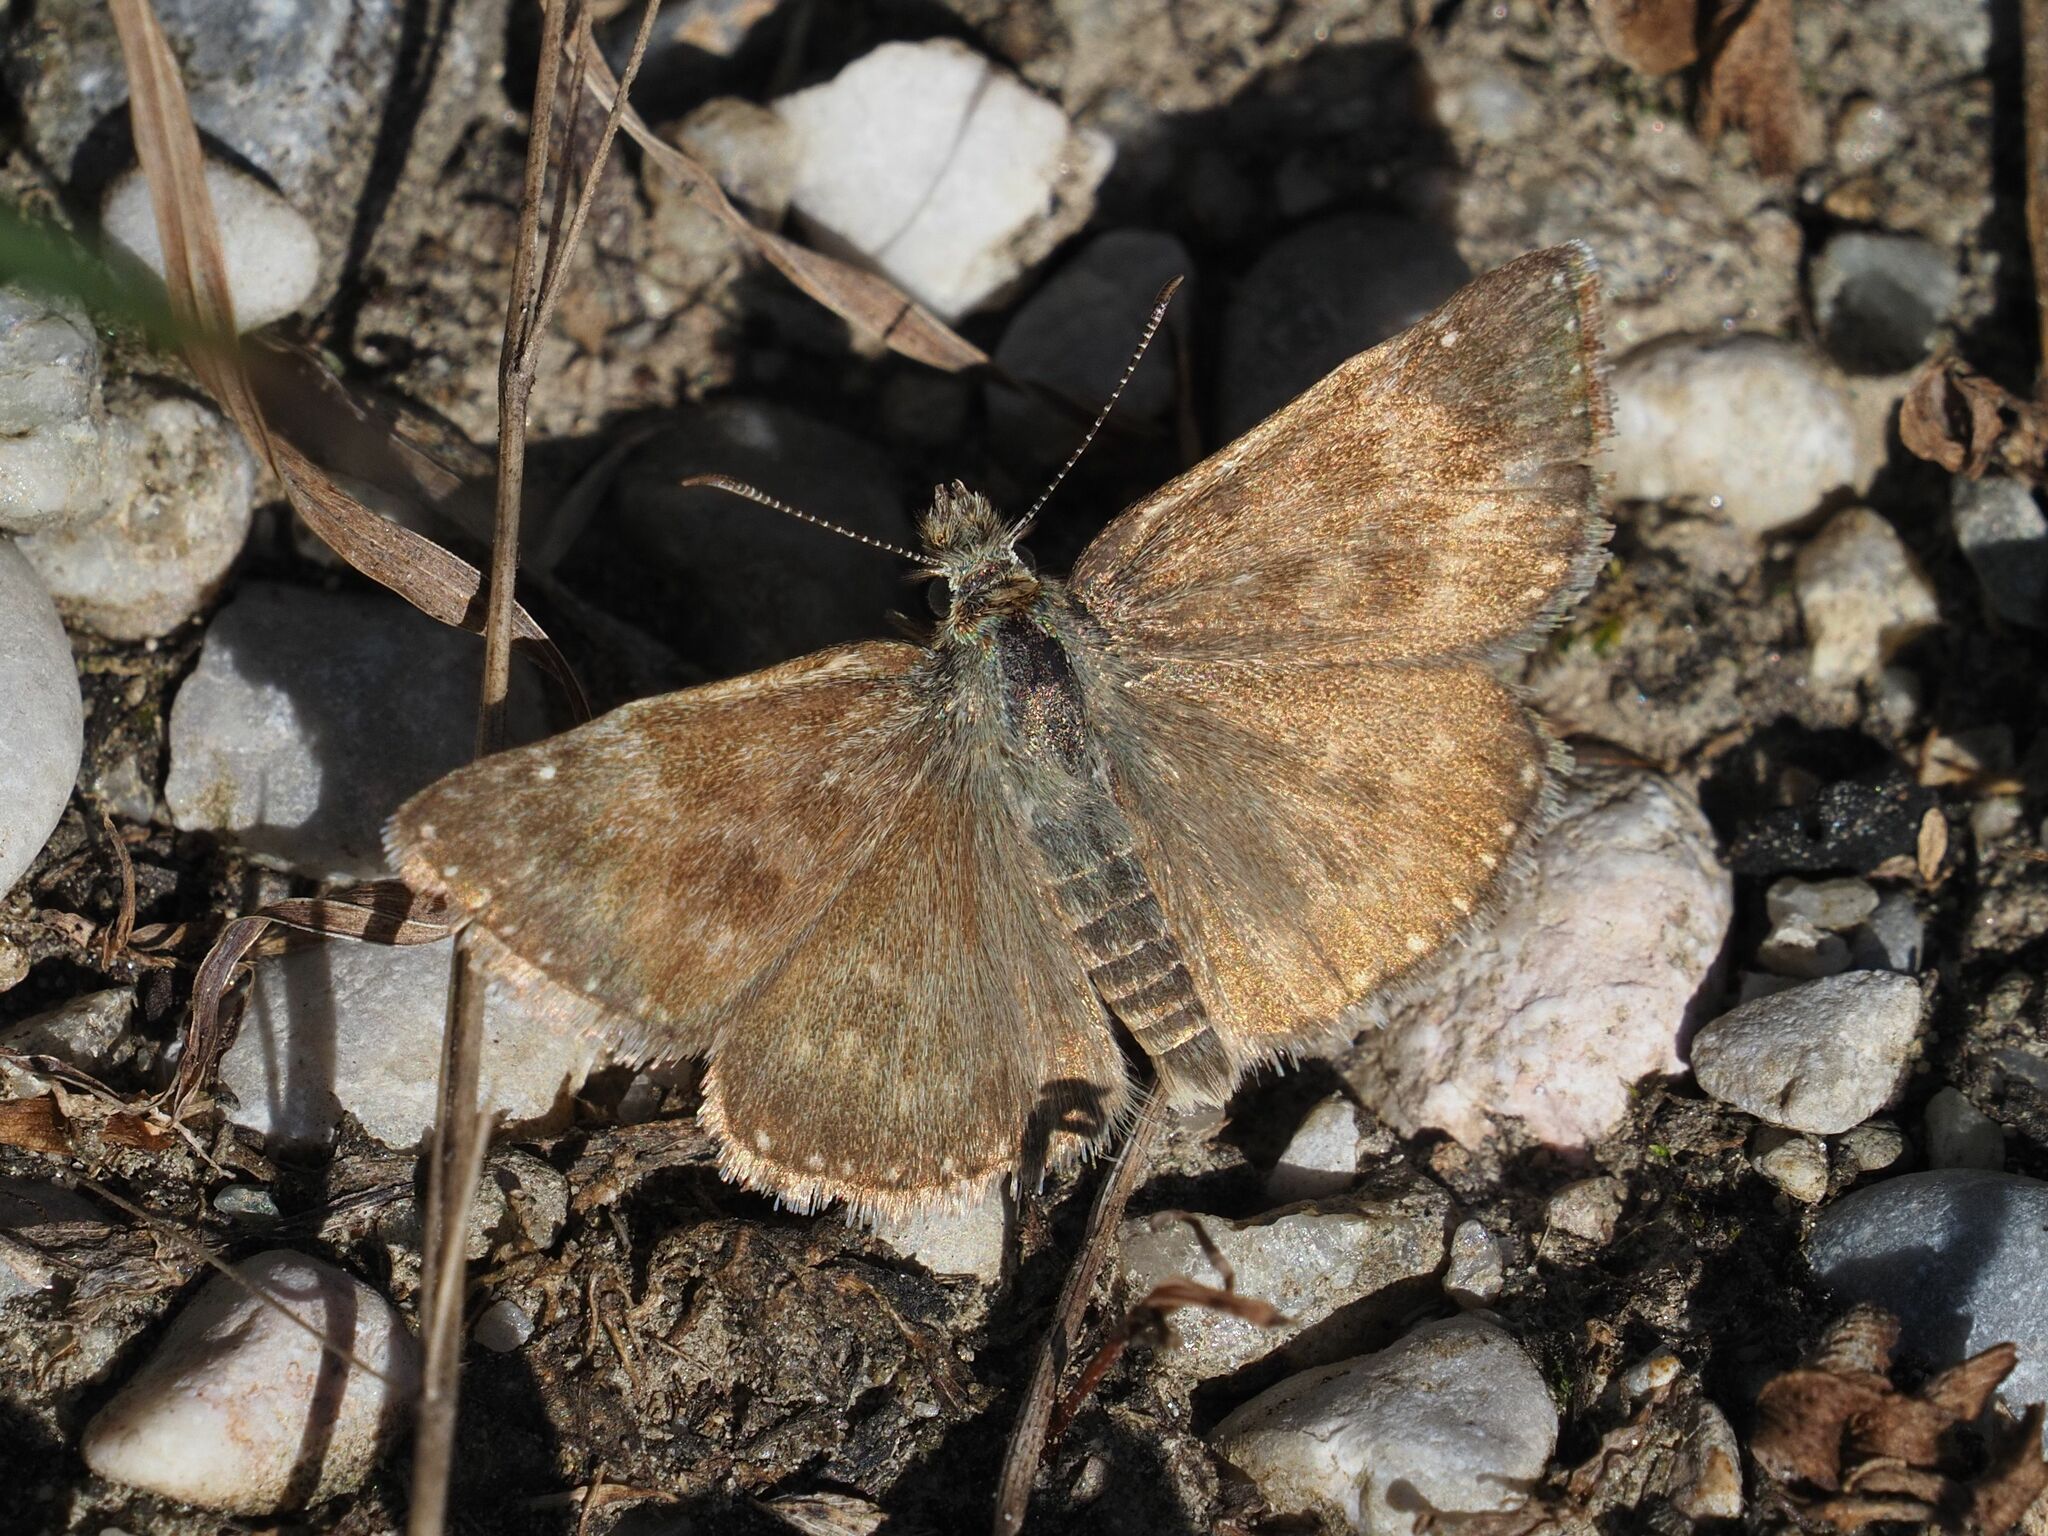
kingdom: Animalia
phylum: Arthropoda
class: Insecta
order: Lepidoptera
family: Hesperiidae
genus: Erynnis
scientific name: Erynnis tages
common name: Dingy skipper
